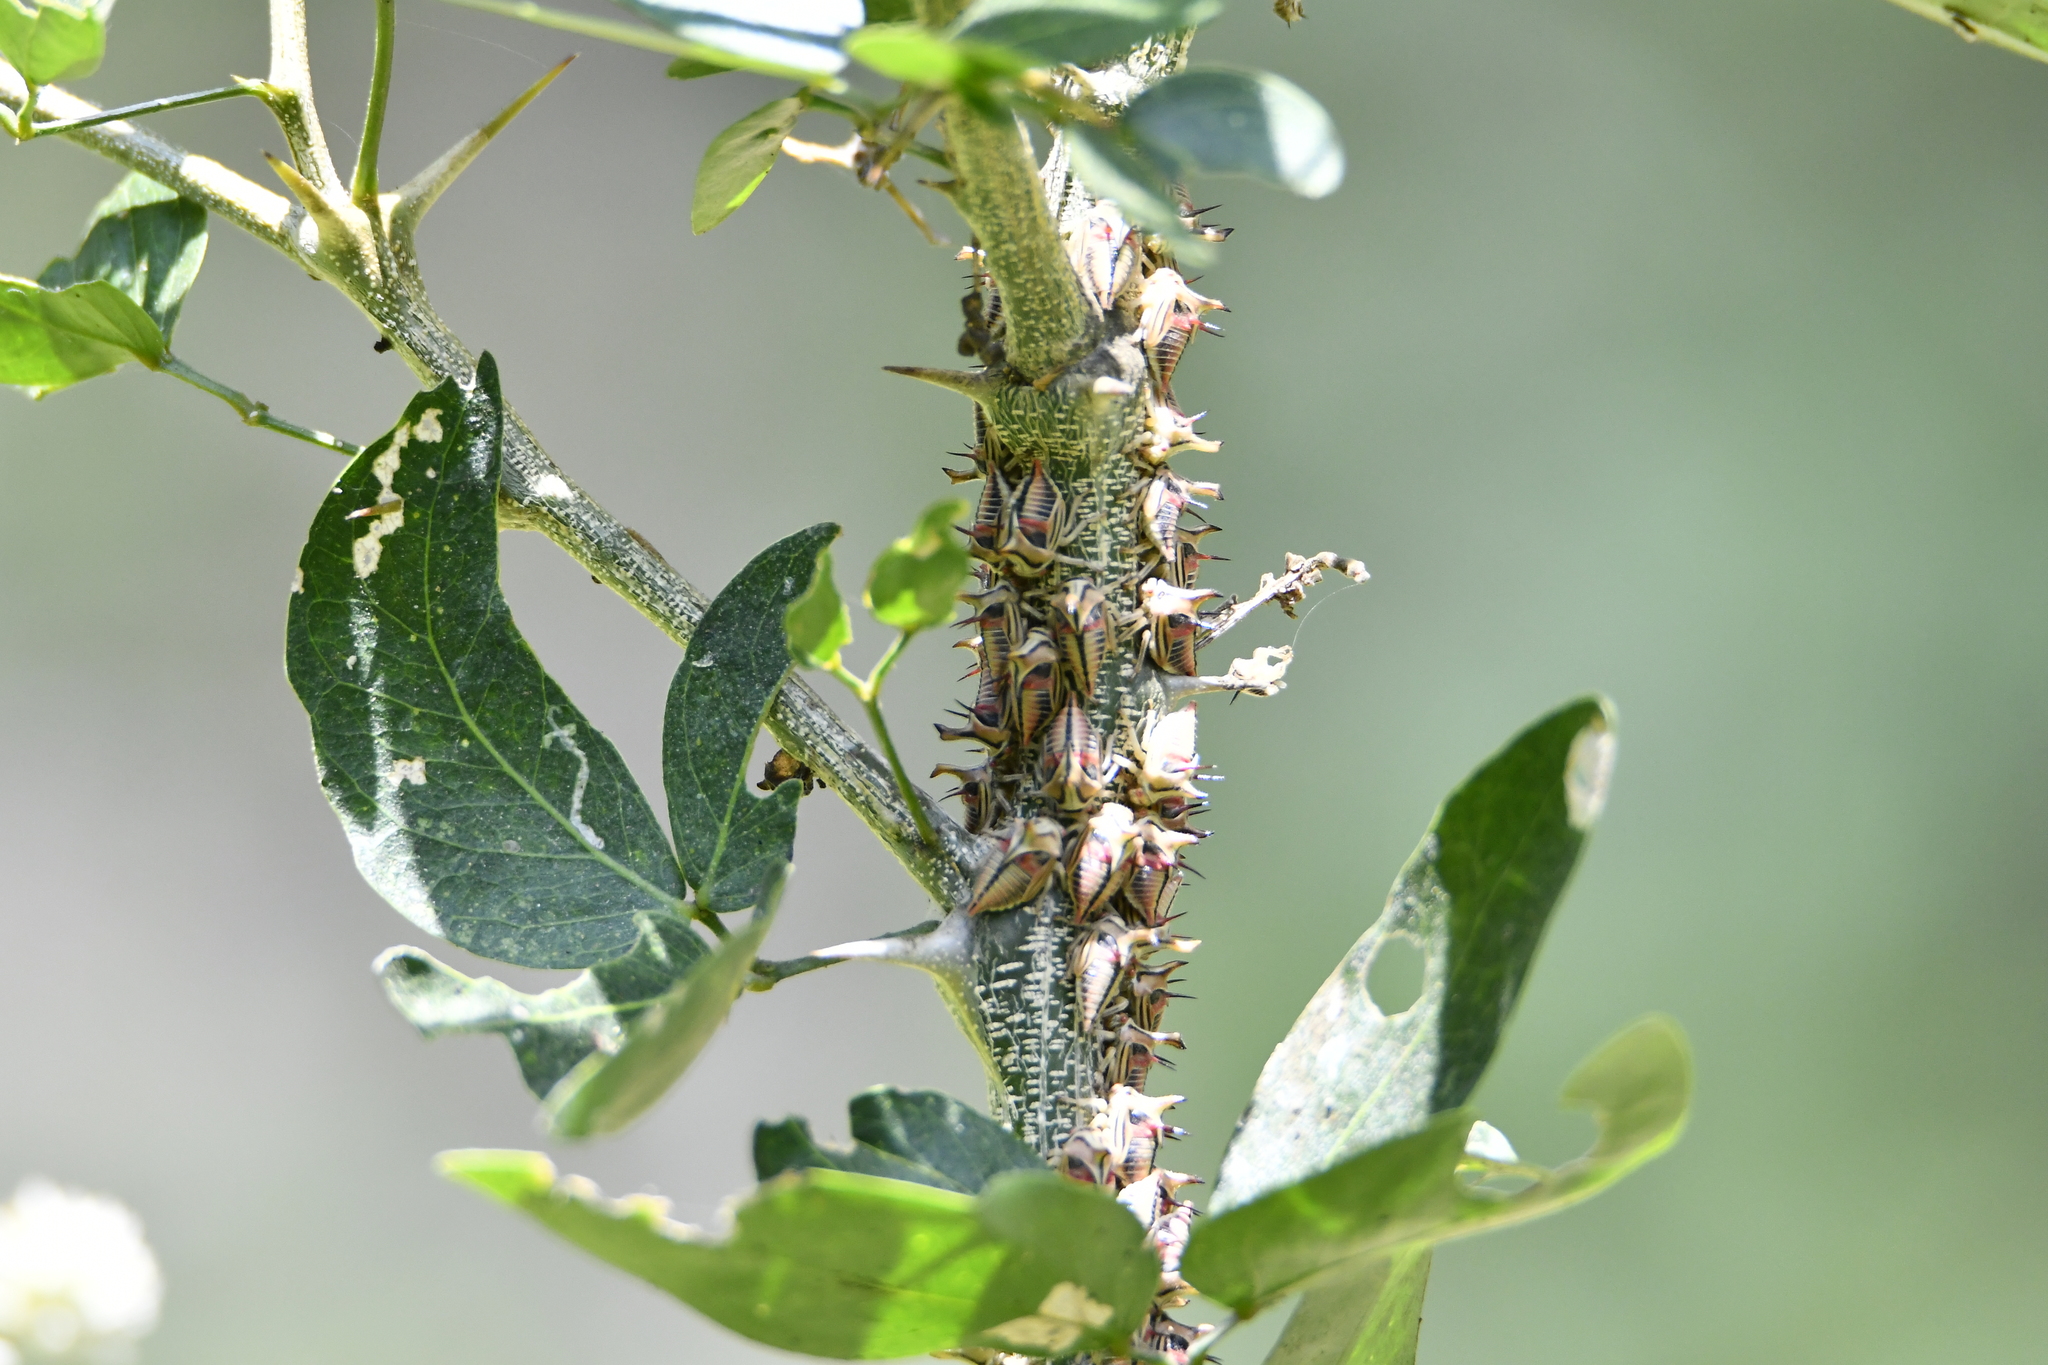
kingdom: Animalia
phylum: Arthropoda
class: Insecta
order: Hemiptera
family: Membracidae
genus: Umbonia
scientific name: Umbonia crassicornis
